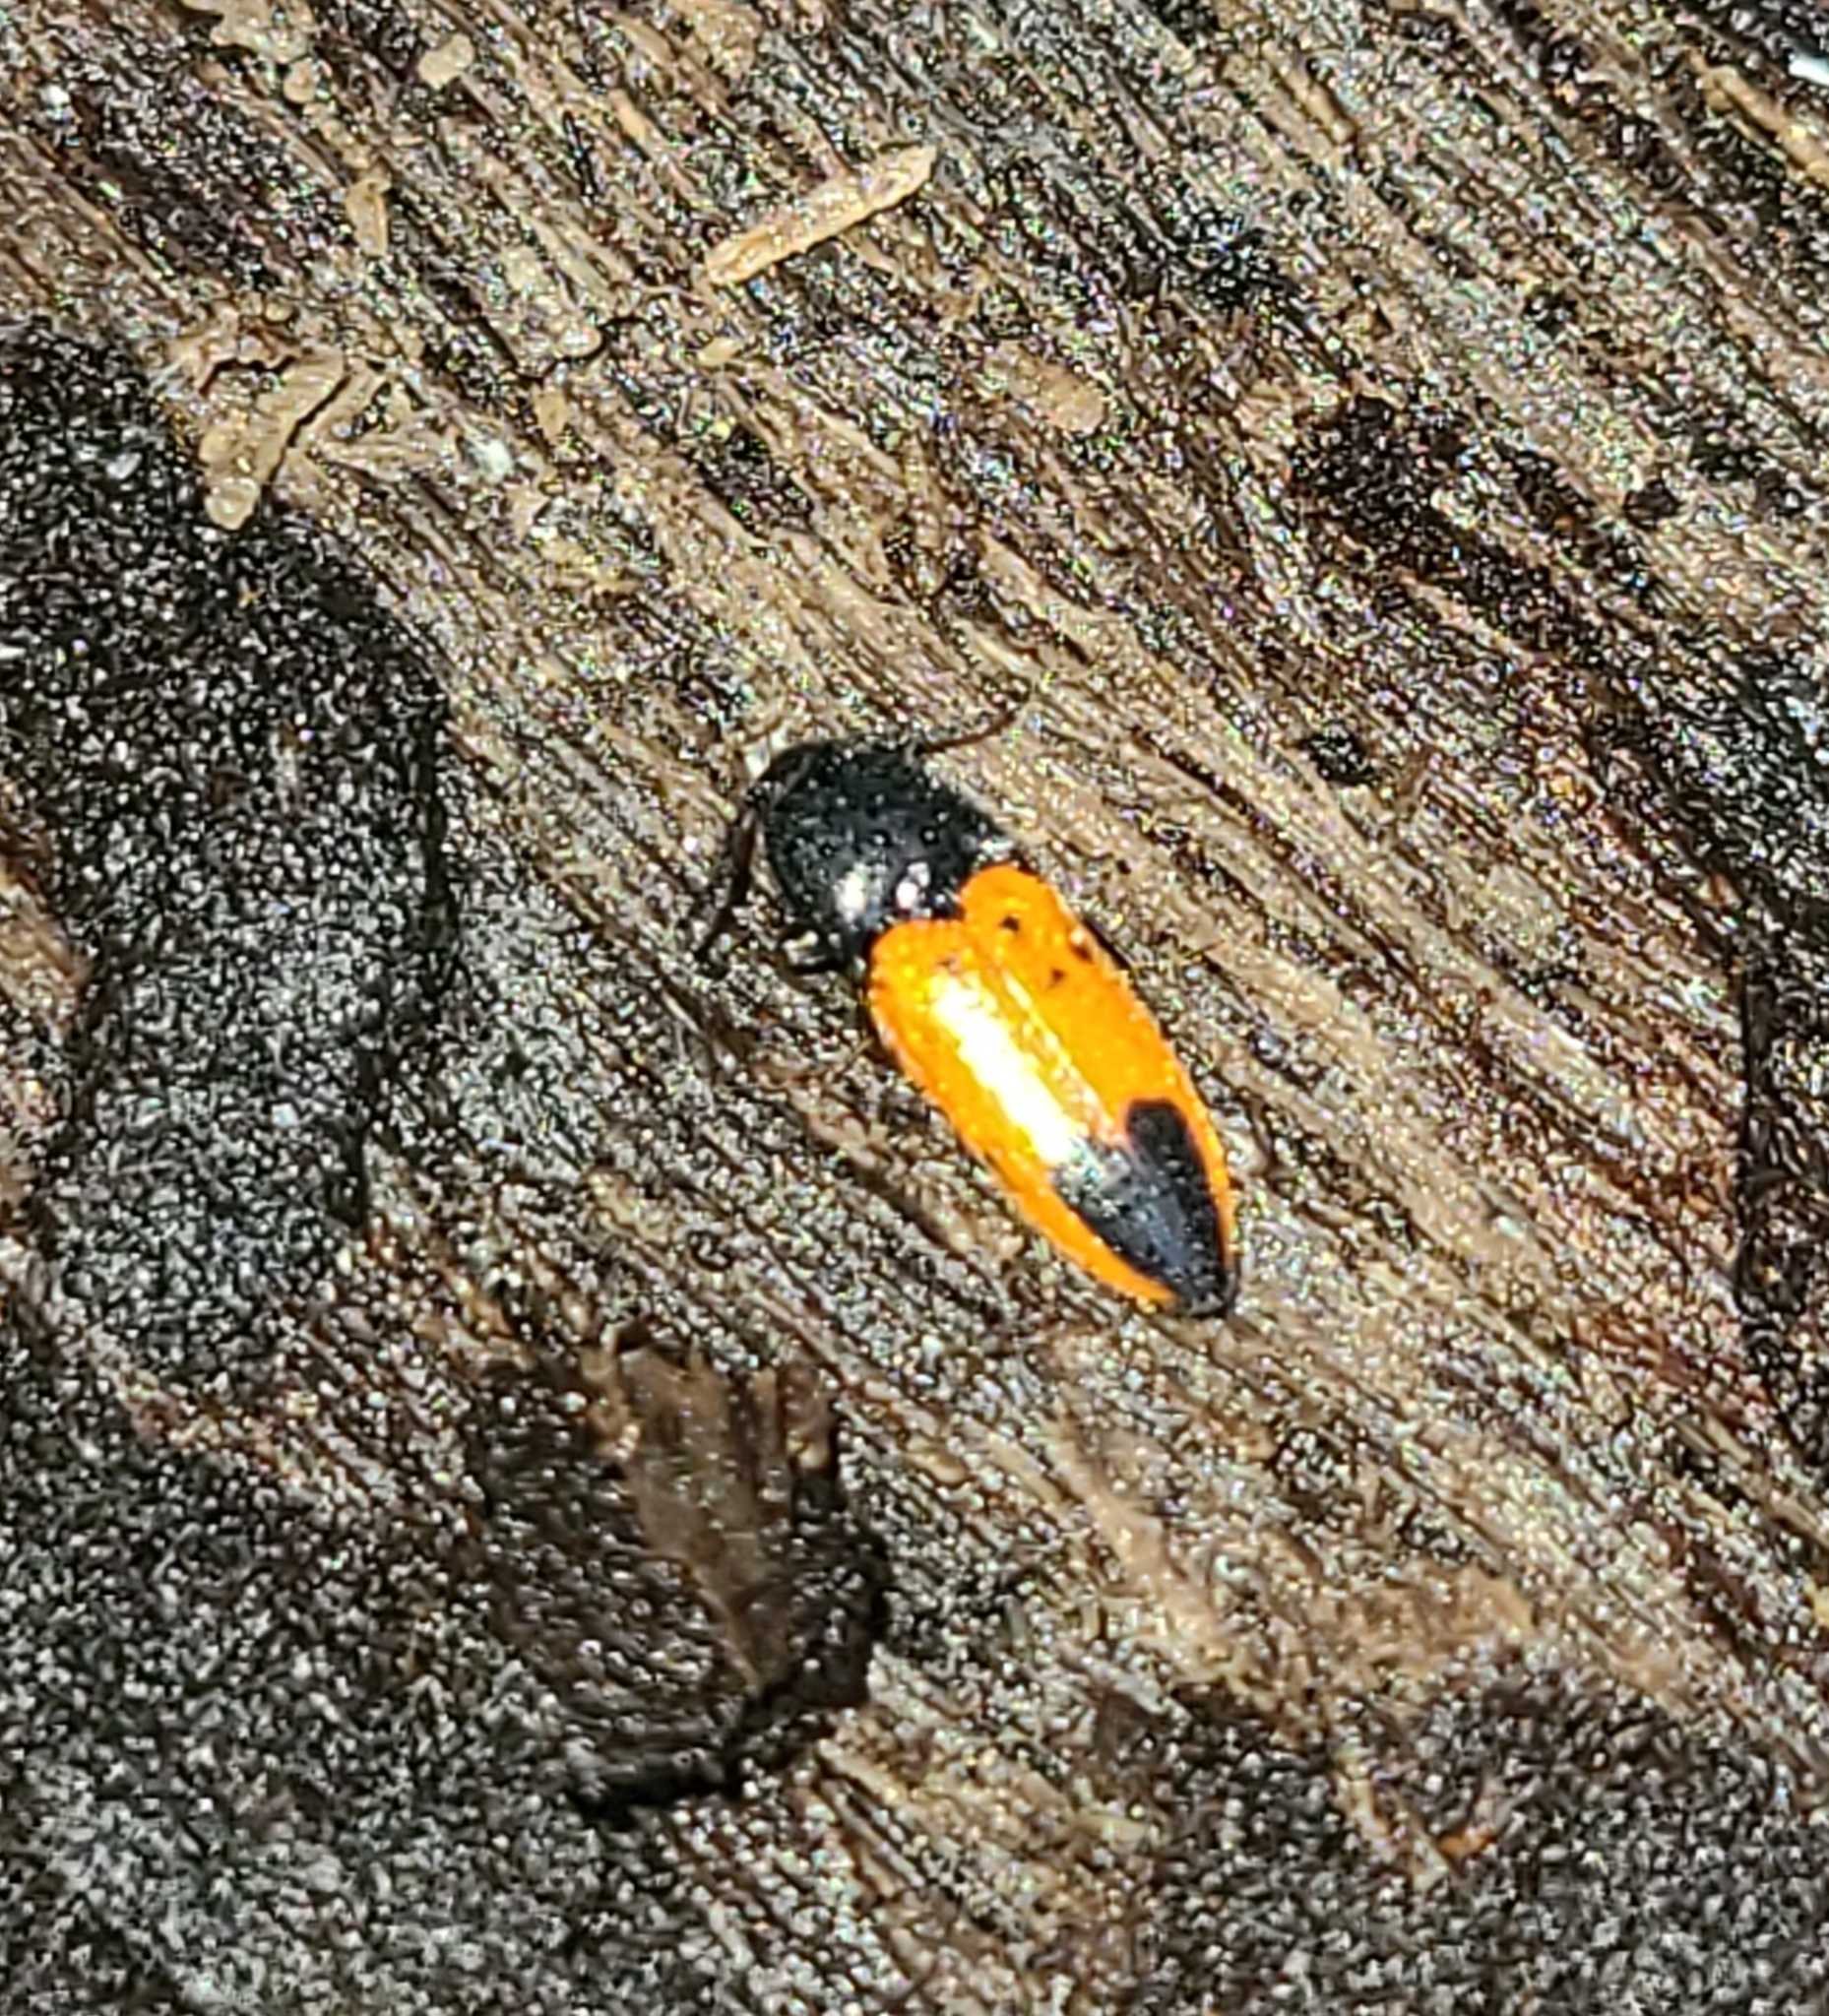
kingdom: Animalia
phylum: Arthropoda
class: Insecta
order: Coleoptera
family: Elateridae
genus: Ampedus
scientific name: Ampedus
